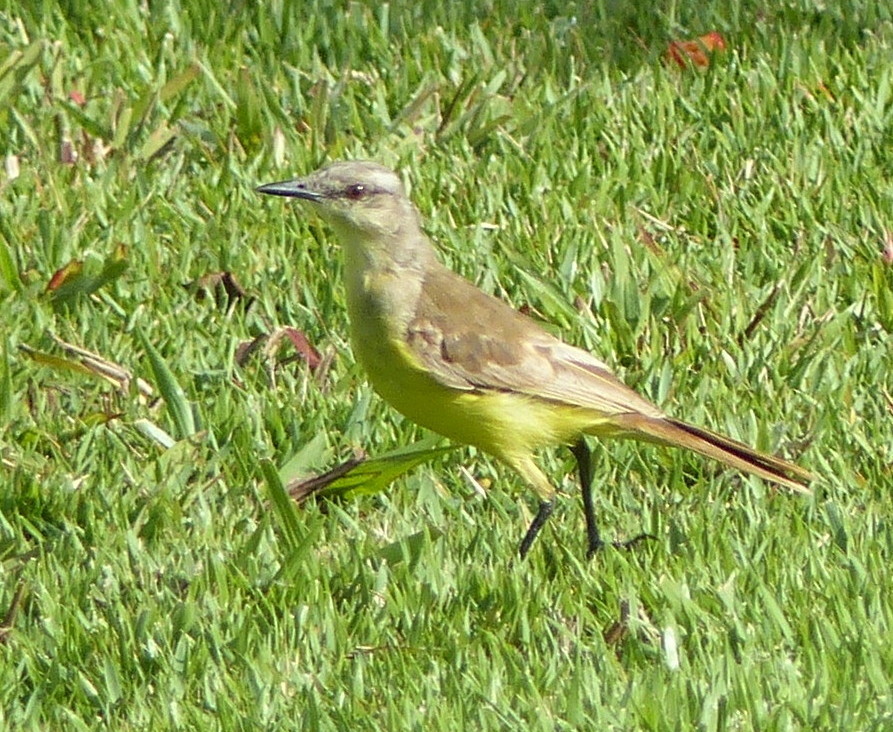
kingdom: Animalia
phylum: Chordata
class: Aves
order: Passeriformes
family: Tyrannidae
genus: Machetornis
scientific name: Machetornis rixosa
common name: Cattle tyrant
